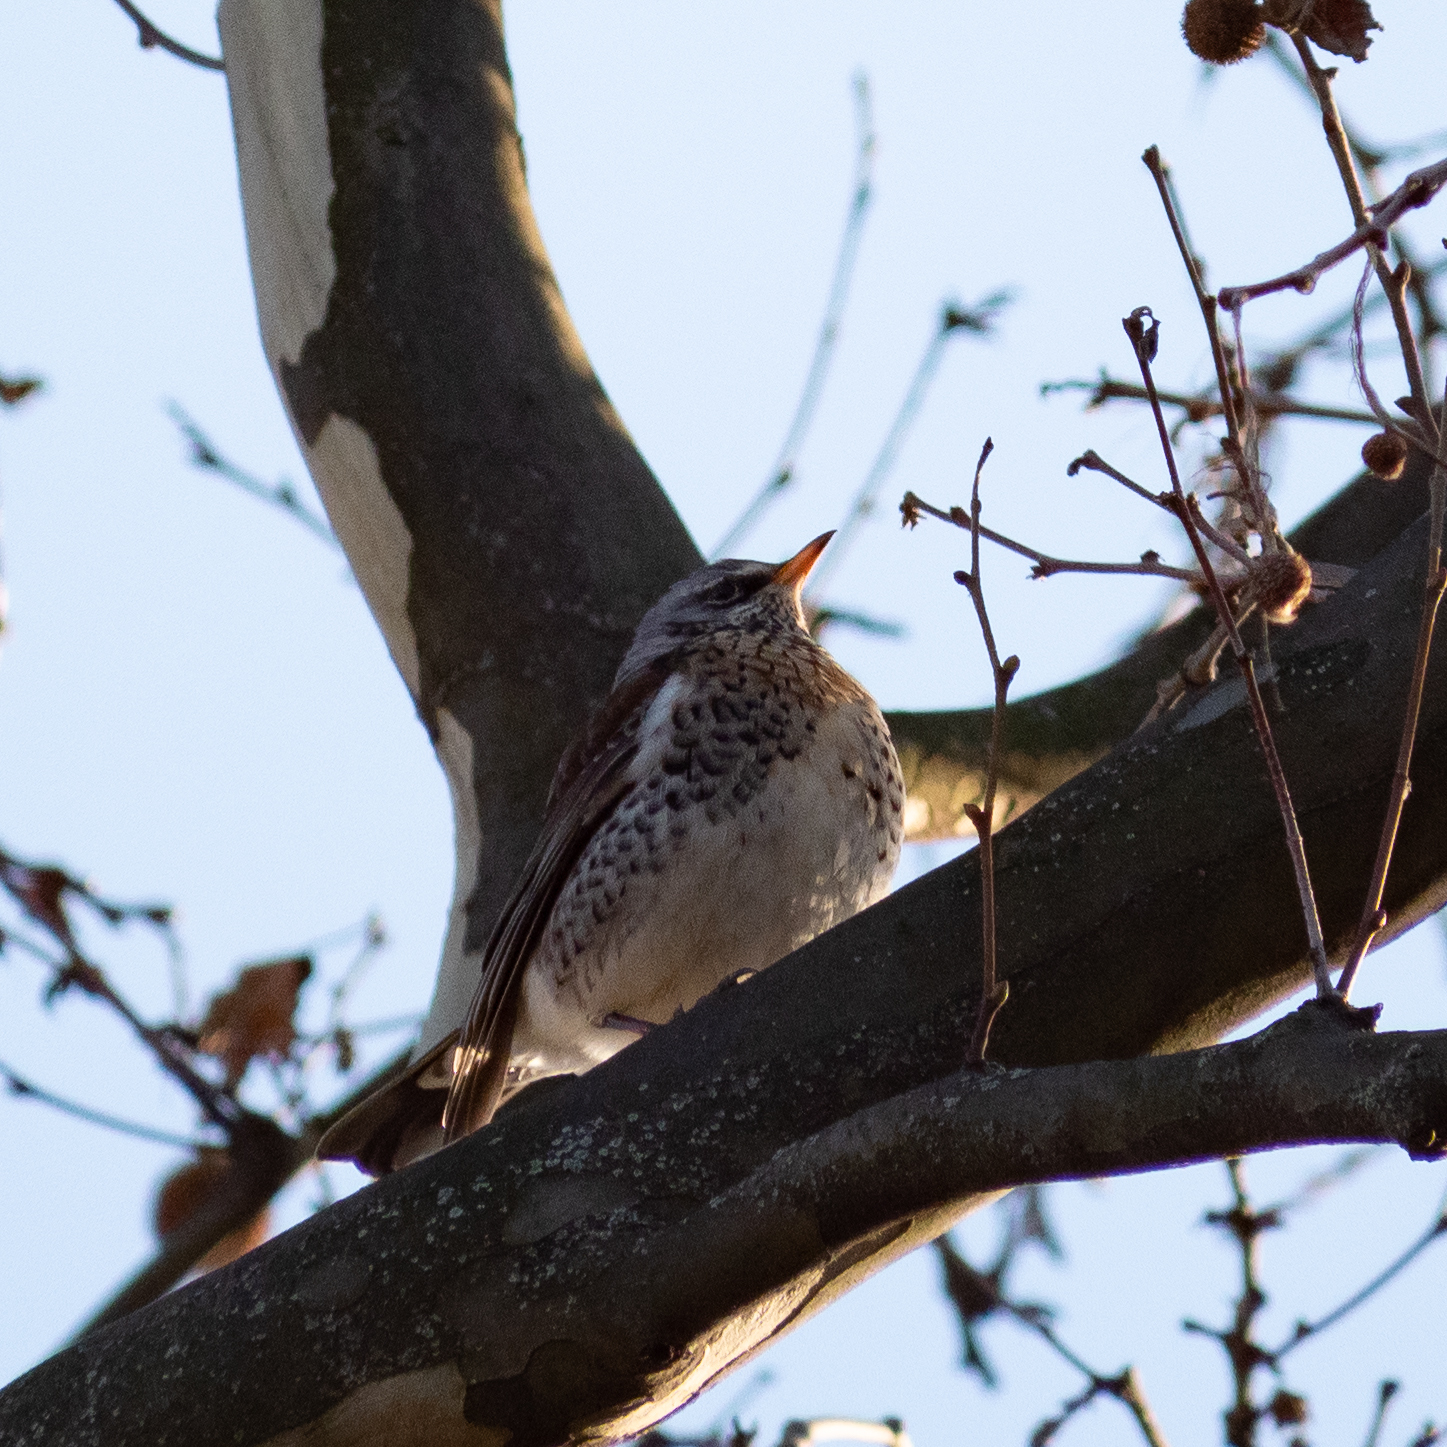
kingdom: Animalia
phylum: Chordata
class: Aves
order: Passeriformes
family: Turdidae
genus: Turdus
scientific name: Turdus pilaris
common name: Fieldfare
